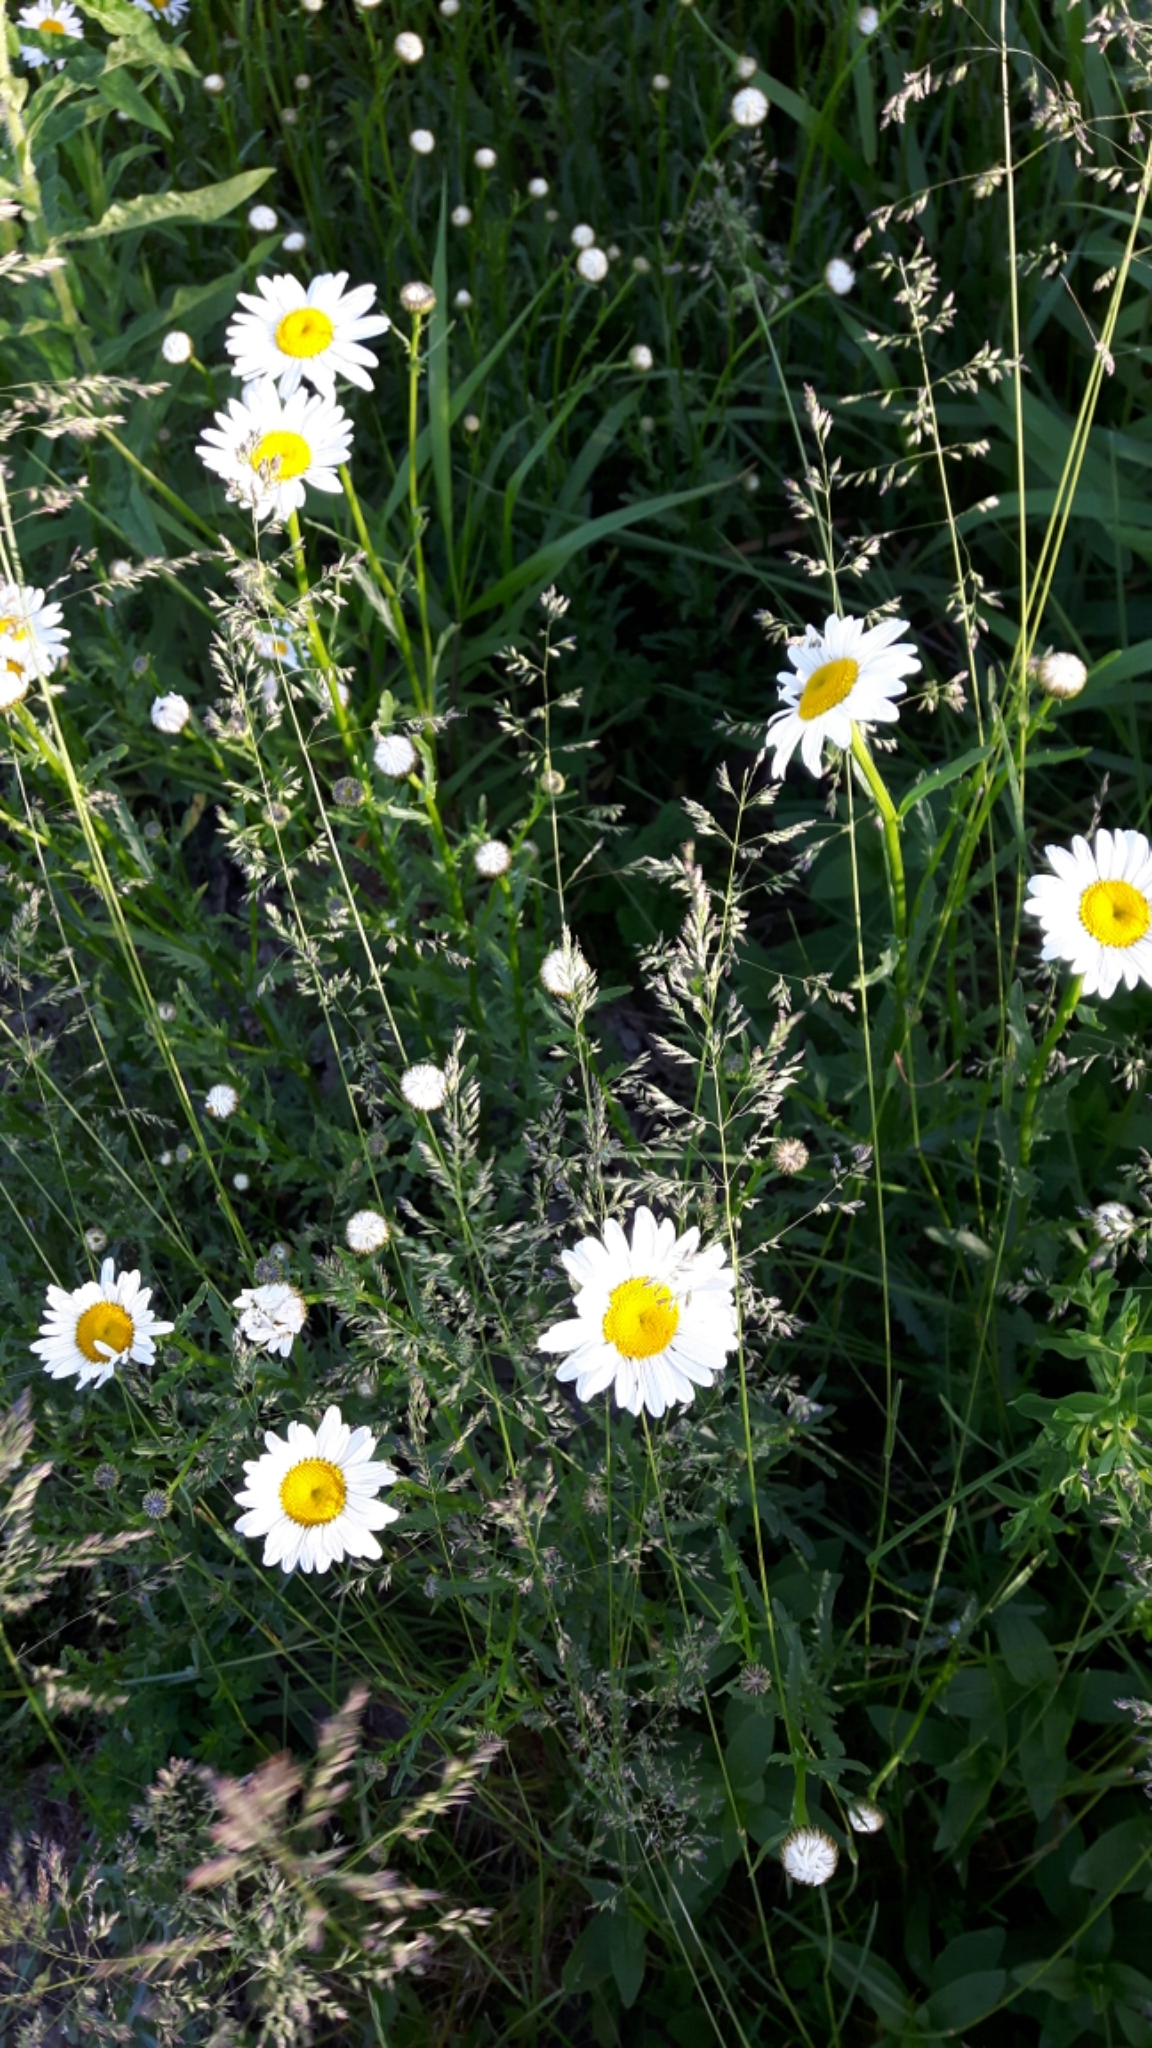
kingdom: Plantae
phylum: Tracheophyta
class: Magnoliopsida
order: Asterales
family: Asteraceae
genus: Leucanthemum
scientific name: Leucanthemum vulgare
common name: Oxeye daisy
